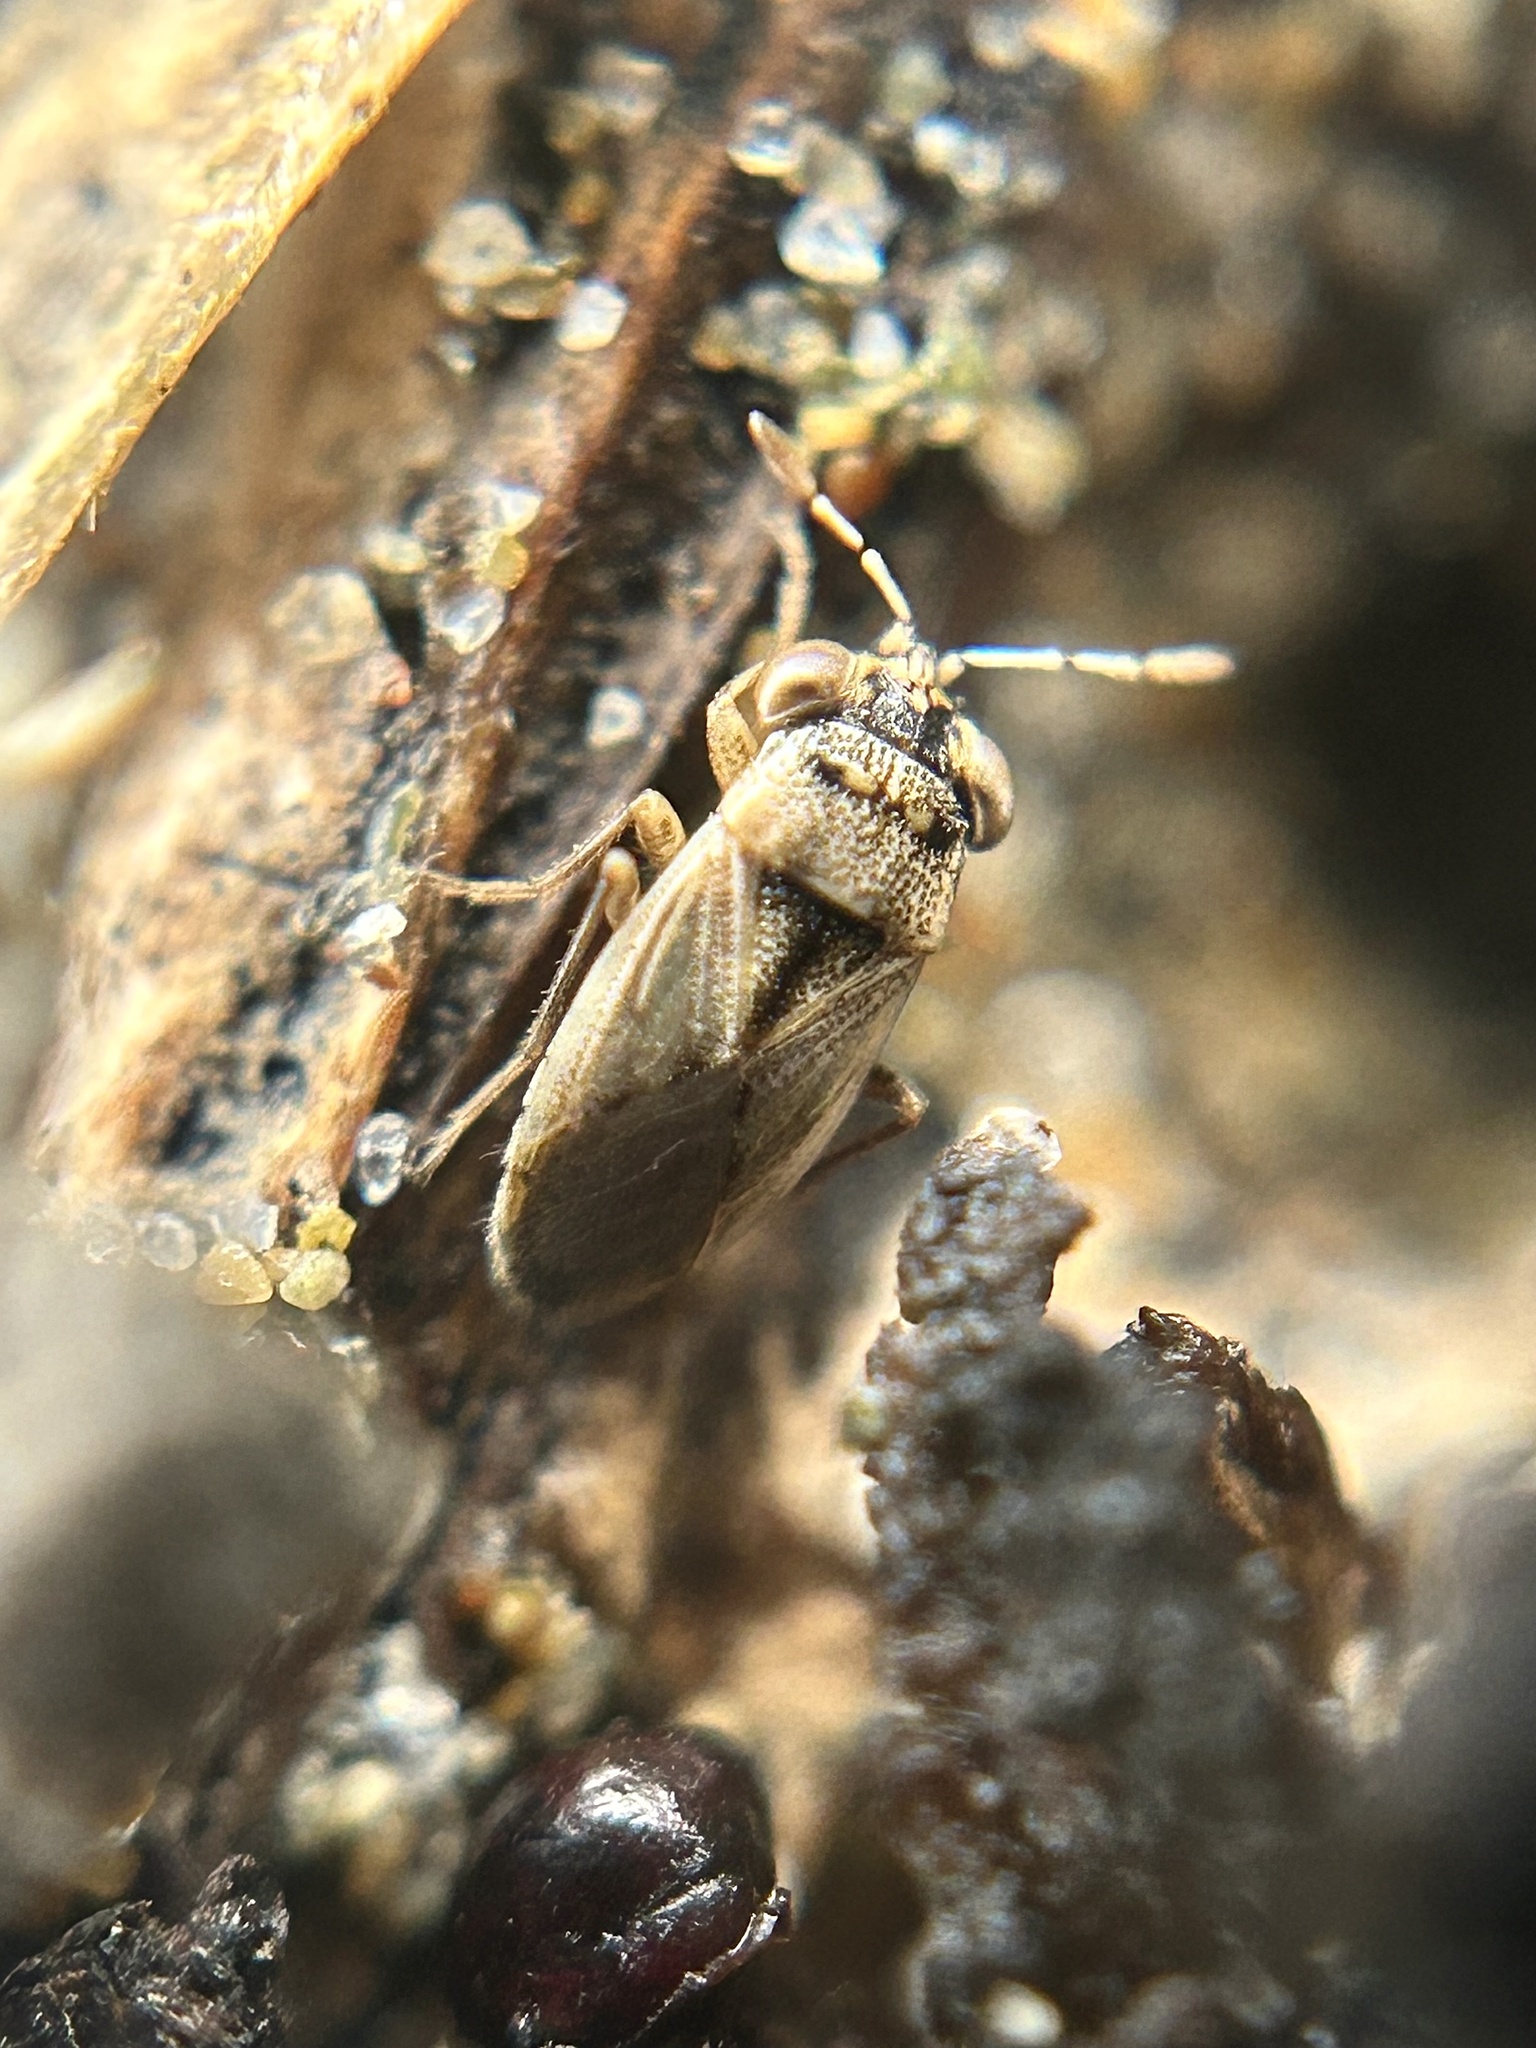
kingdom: Animalia
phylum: Arthropoda
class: Insecta
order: Hemiptera
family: Geocoridae
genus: Geocoris
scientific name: Geocoris pallens
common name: Big-eyed bug
